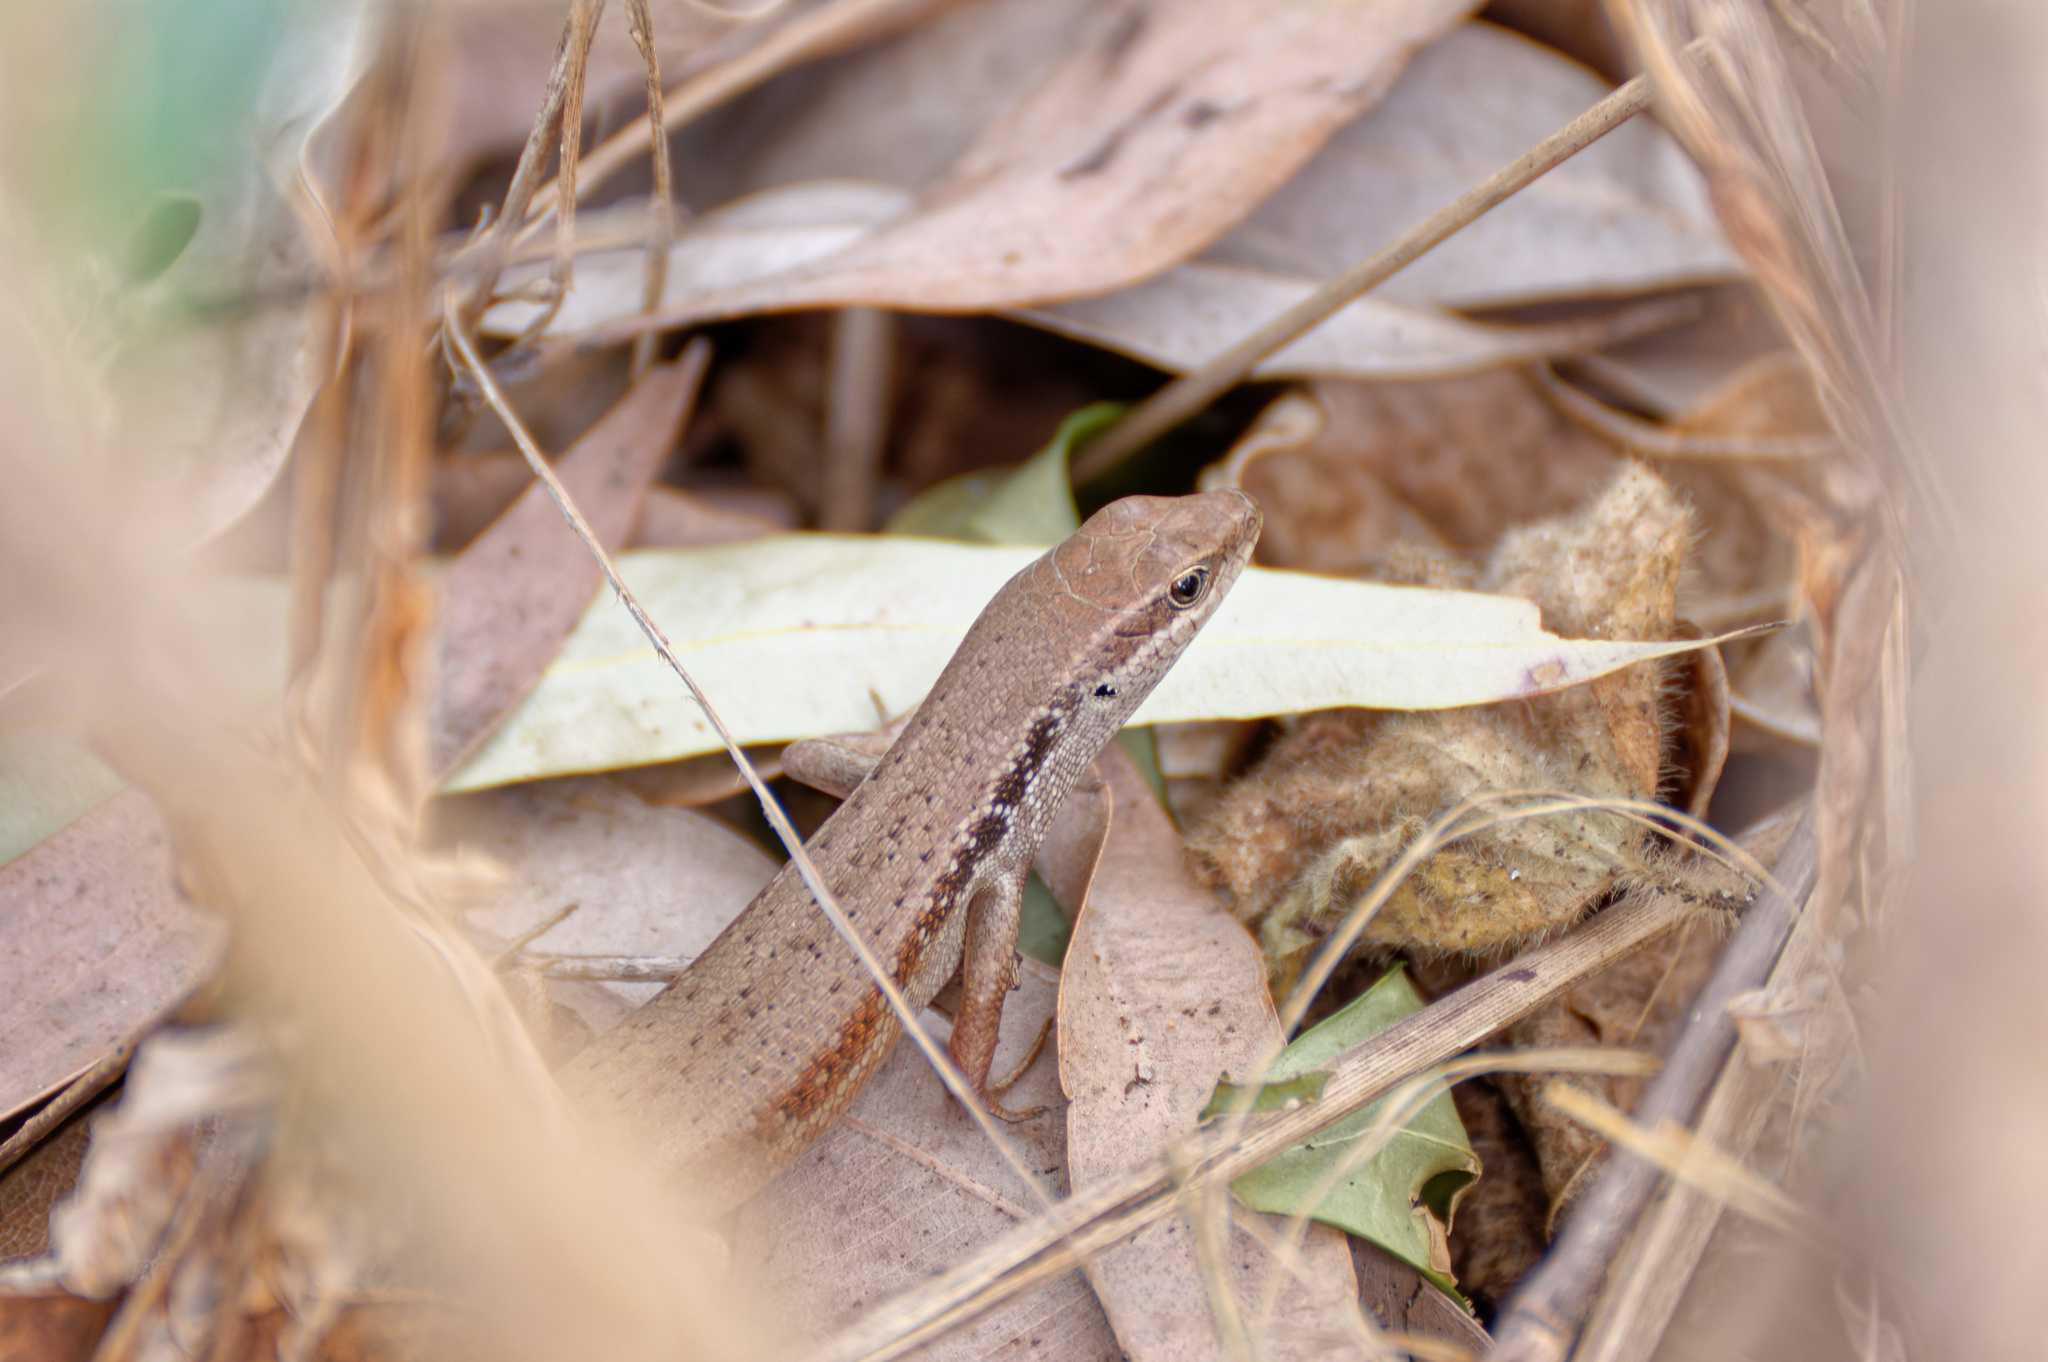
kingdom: Animalia
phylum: Chordata
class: Squamata
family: Scincidae
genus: Carlia
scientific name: Carlia longipes
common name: Closed-litter rainbow-skink
